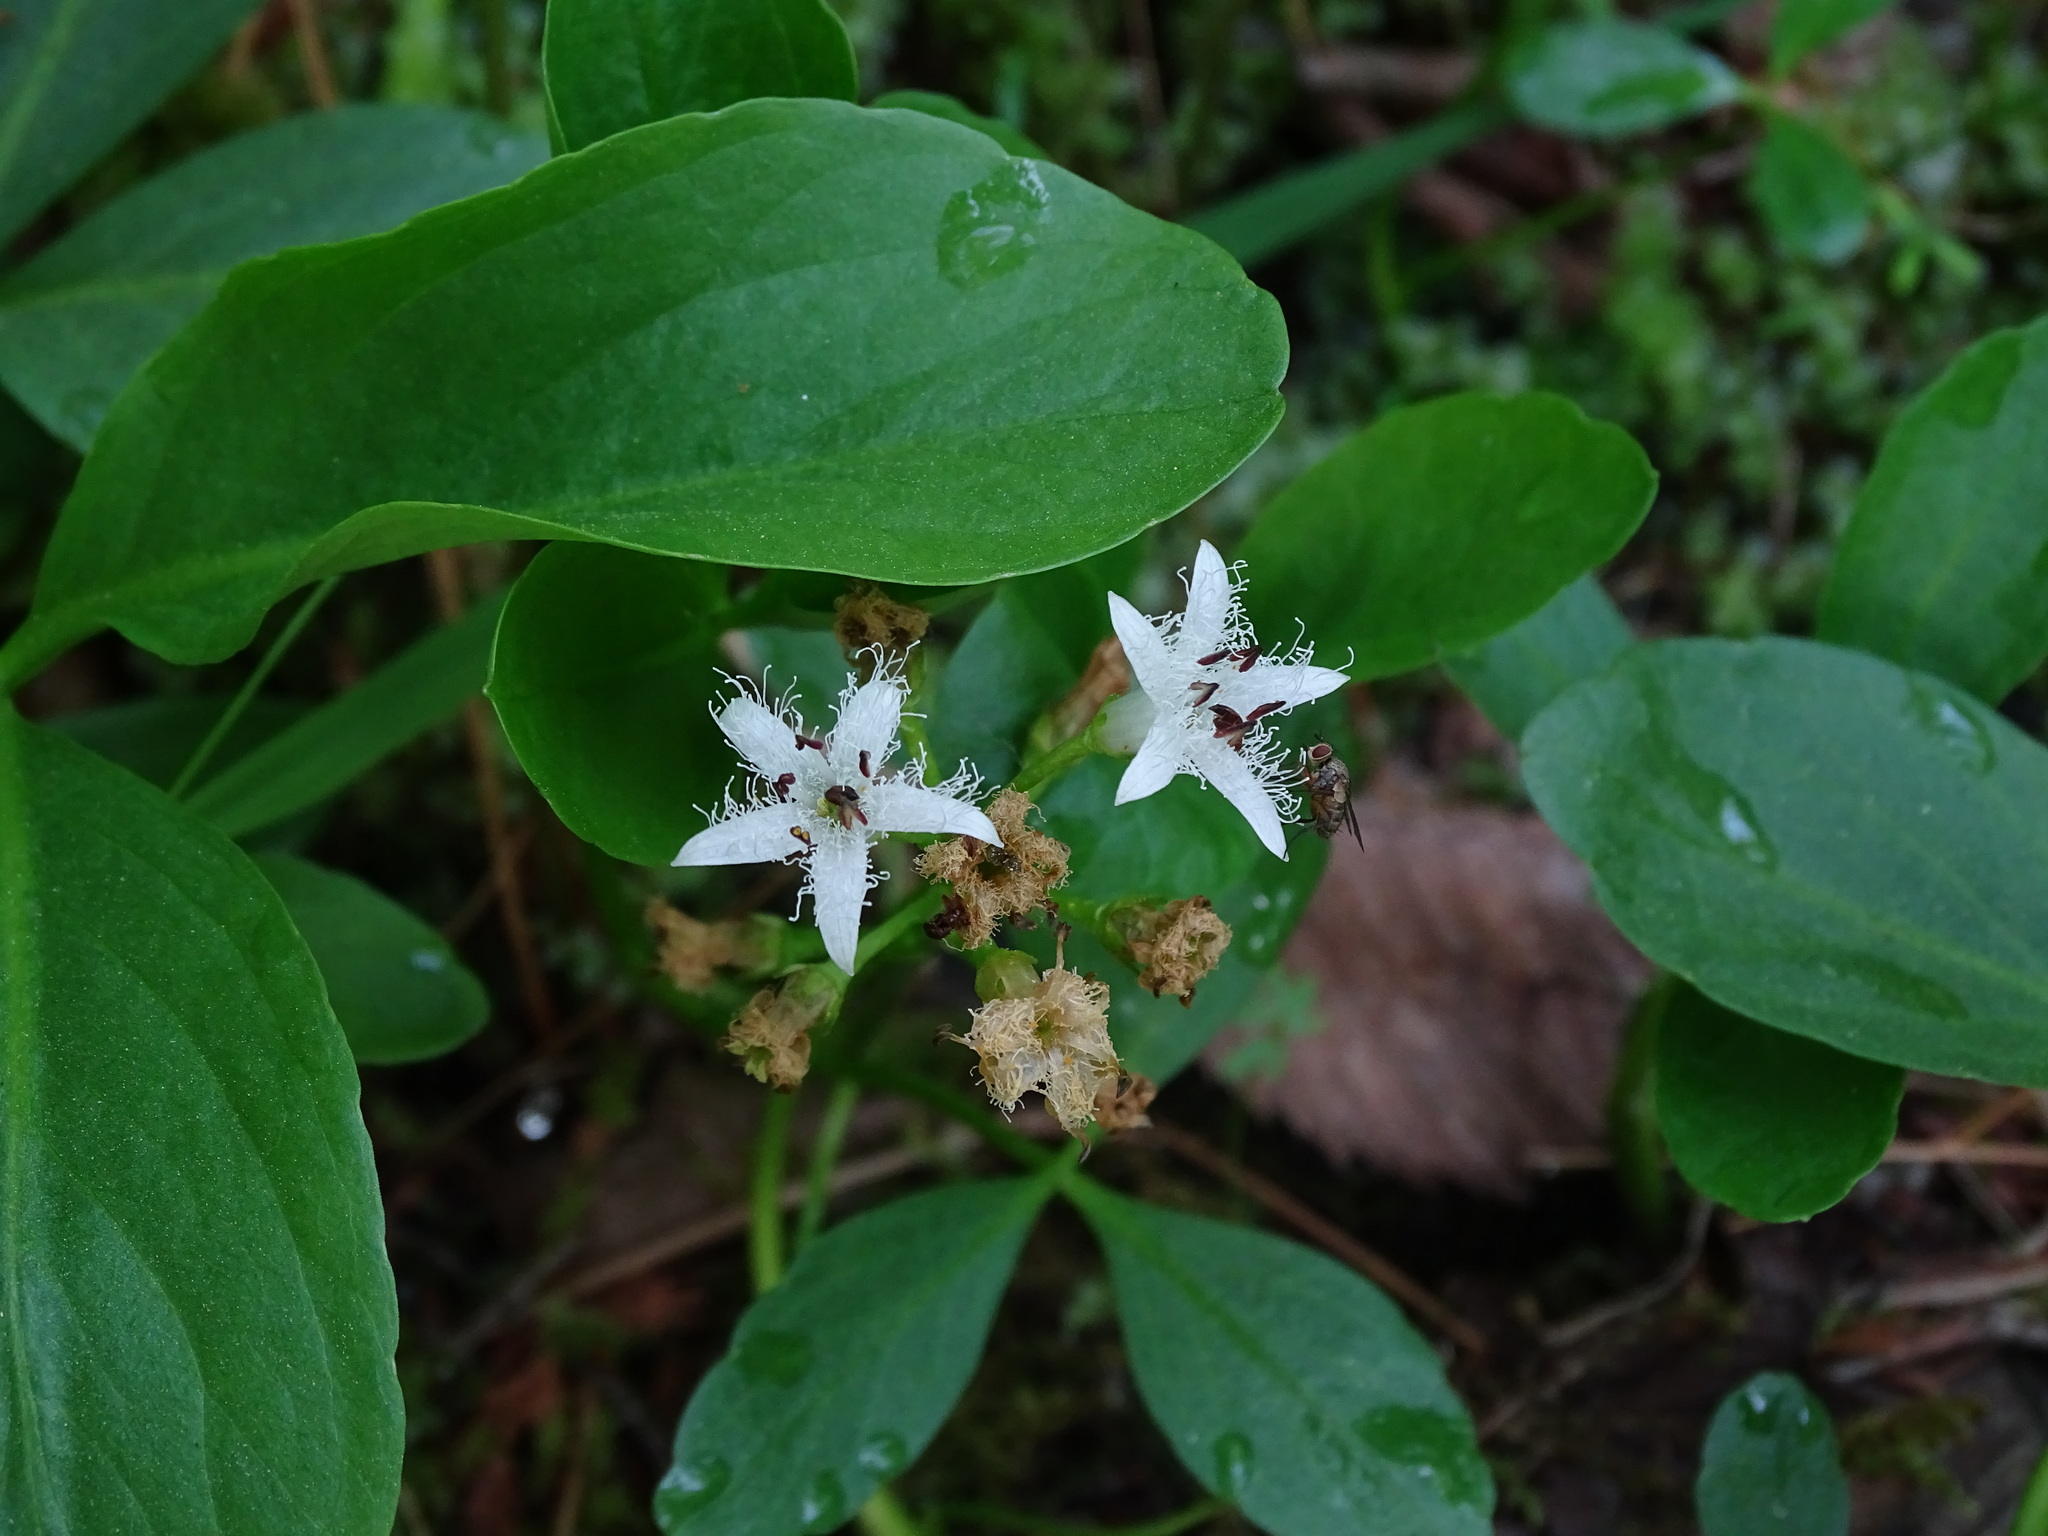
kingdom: Plantae
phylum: Tracheophyta
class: Magnoliopsida
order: Asterales
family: Menyanthaceae
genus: Menyanthes
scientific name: Menyanthes trifoliata
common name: Bogbean
